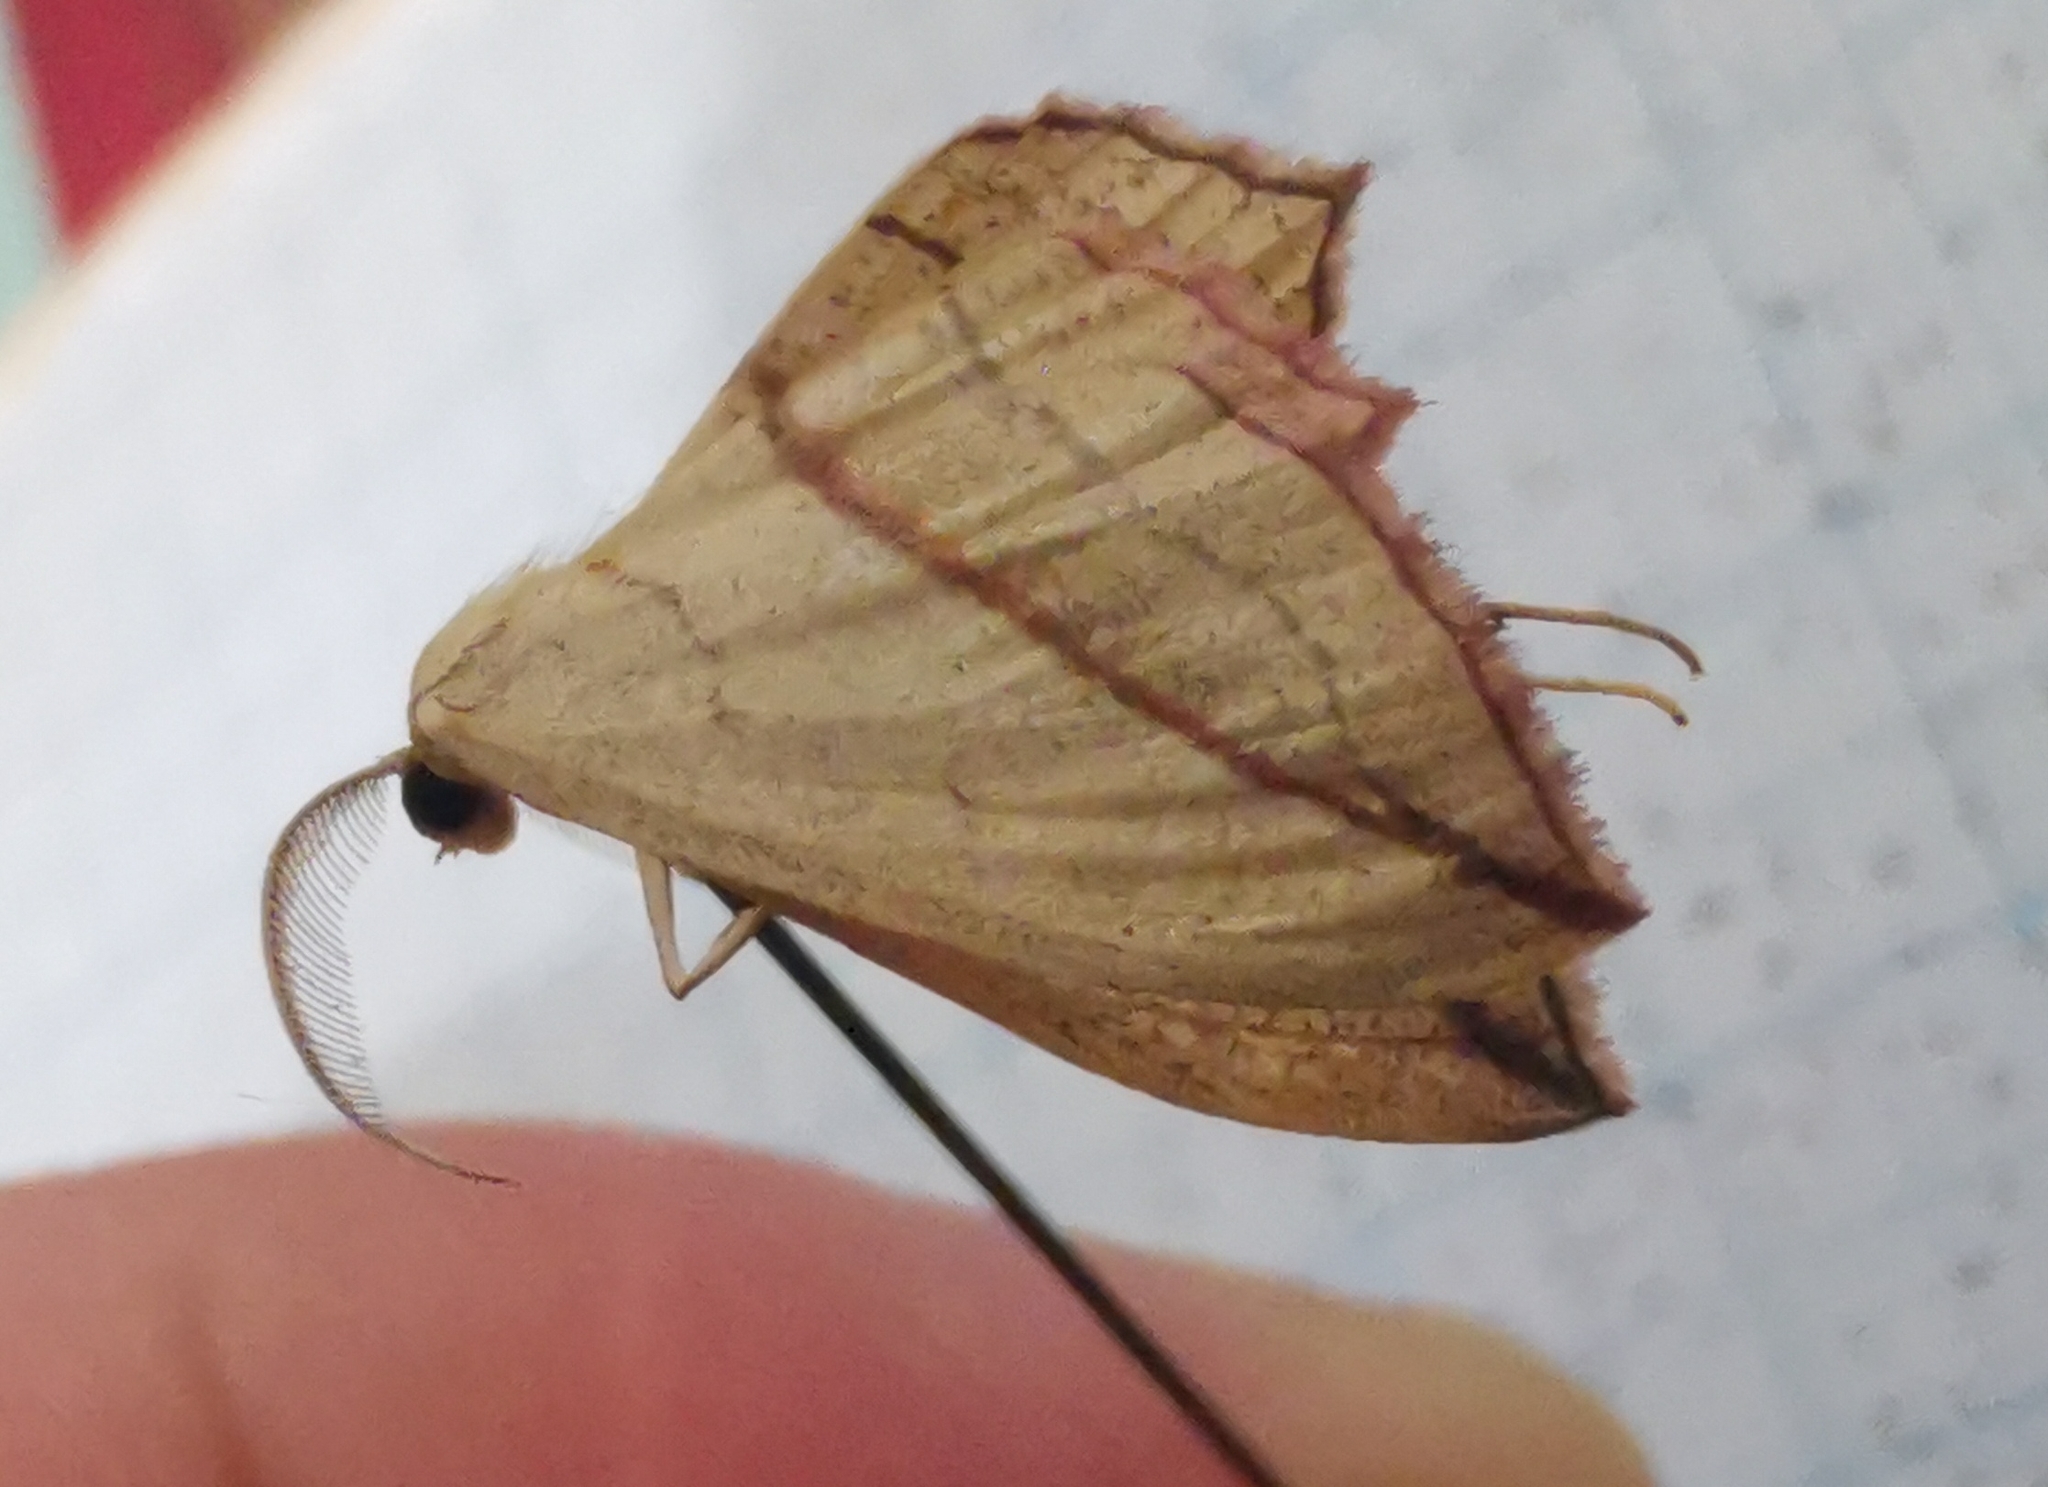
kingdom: Animalia
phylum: Arthropoda
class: Insecta
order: Lepidoptera
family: Geometridae
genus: Timandra
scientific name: Timandra comae
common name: Blood-vein
